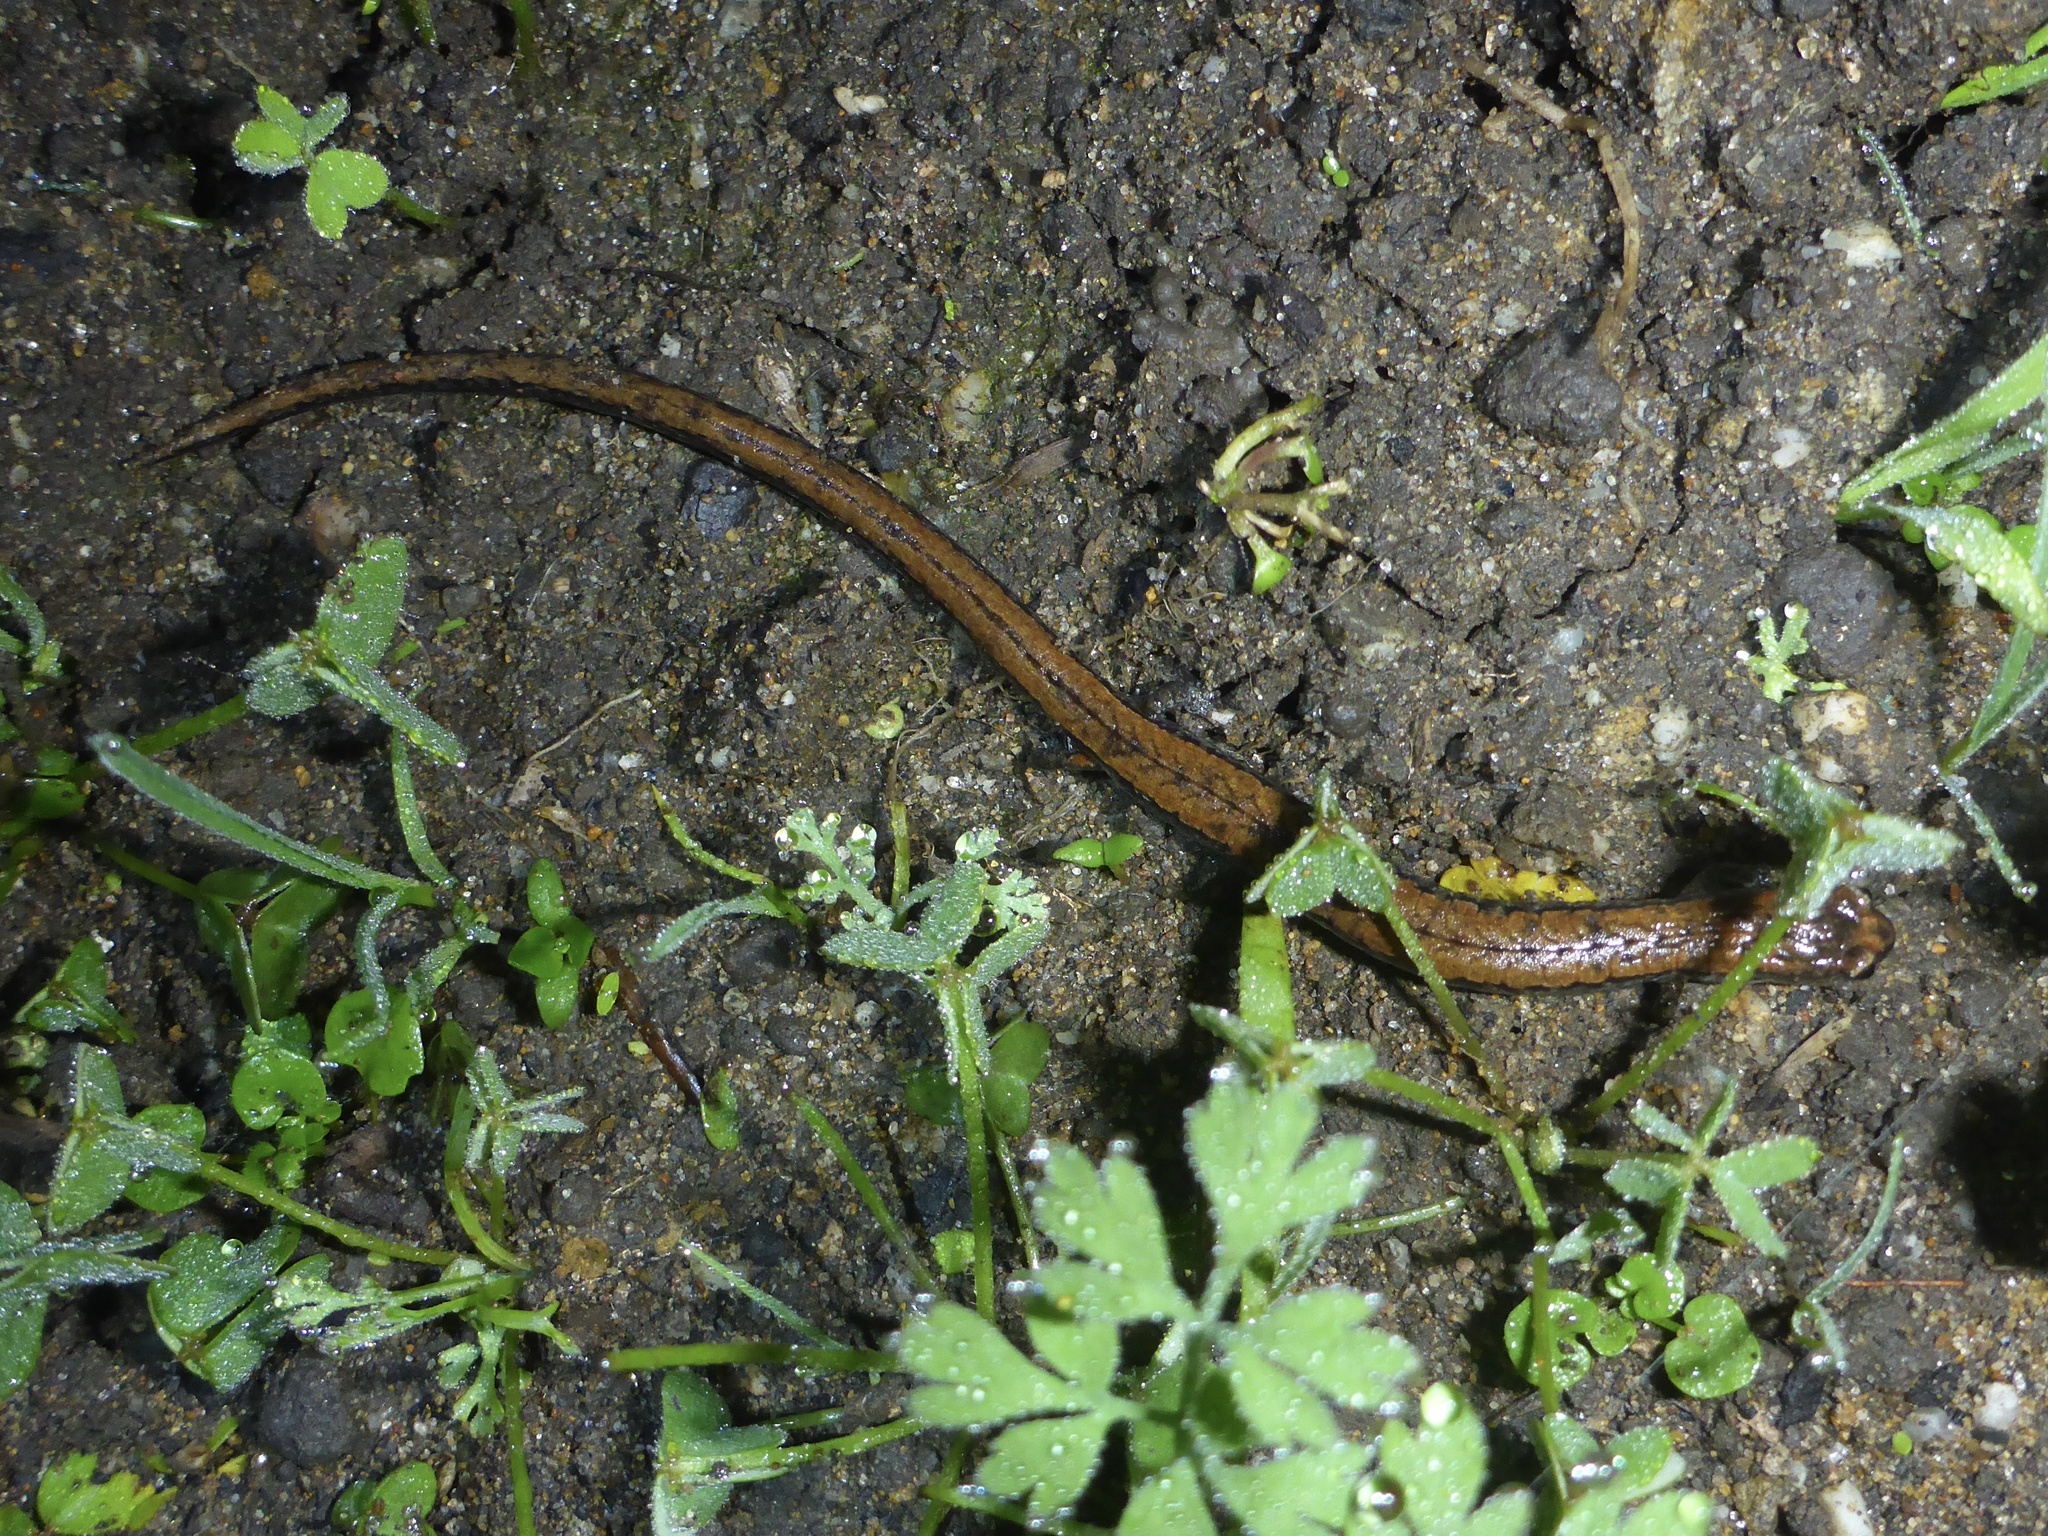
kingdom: Animalia
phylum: Chordata
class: Amphibia
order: Caudata
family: Plethodontidae
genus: Batrachoseps
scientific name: Batrachoseps attenuatus
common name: California slender salamander
